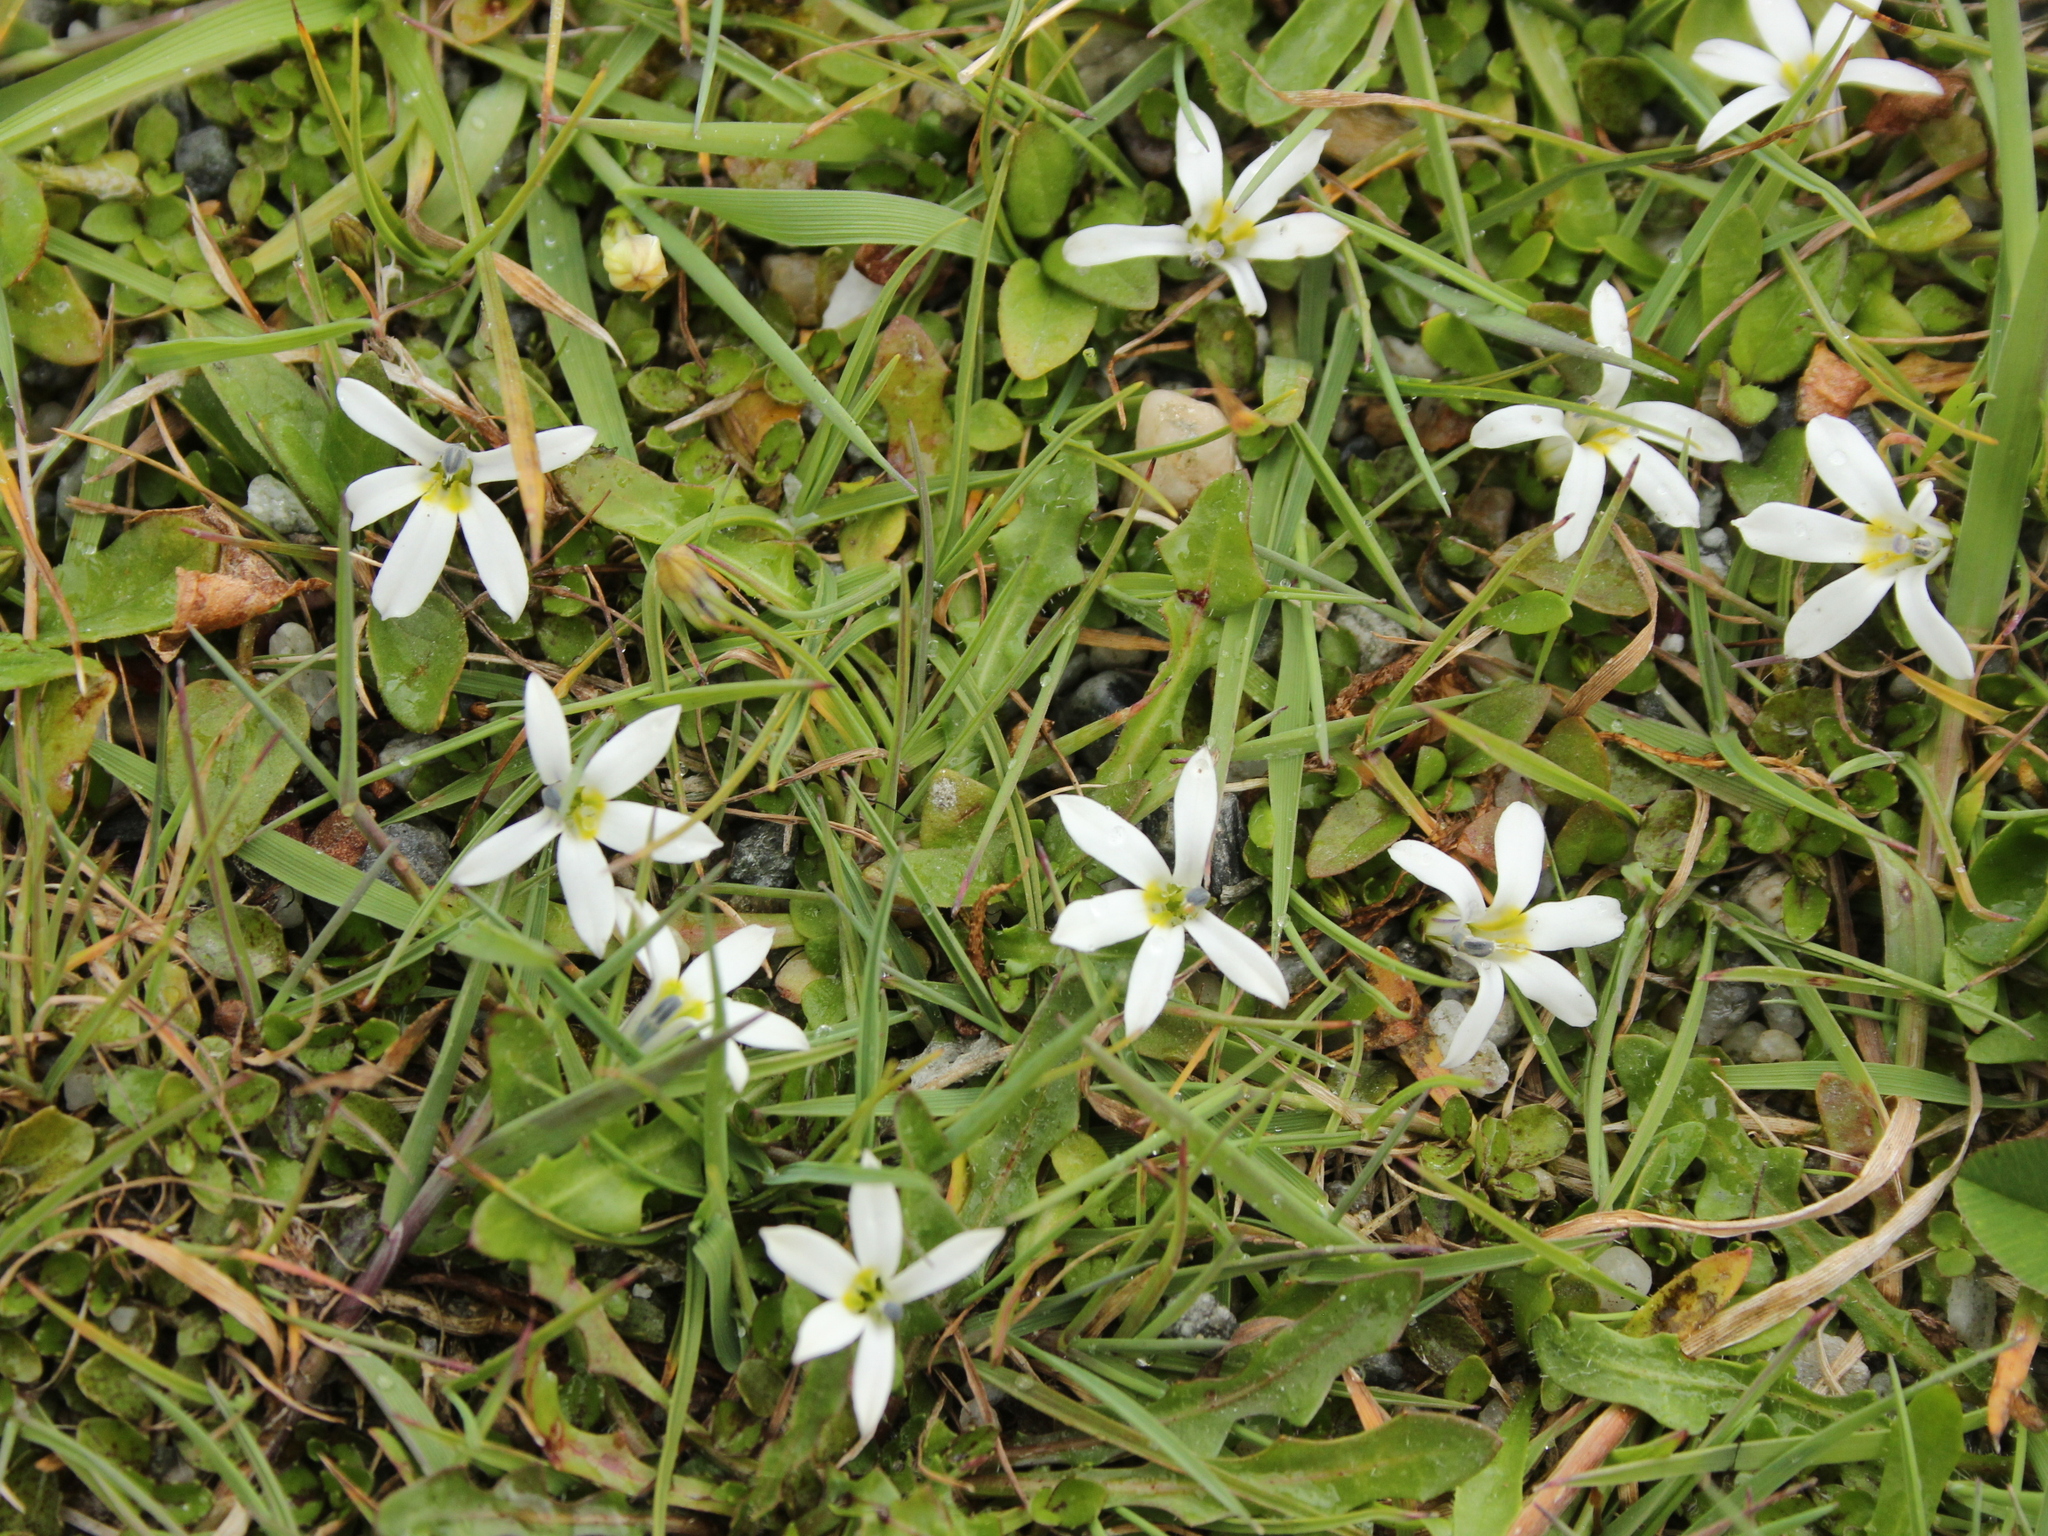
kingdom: Plantae
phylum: Tracheophyta
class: Magnoliopsida
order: Asterales
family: Campanulaceae
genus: Lobelia
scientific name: Lobelia angulata
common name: Lawn lobelia
